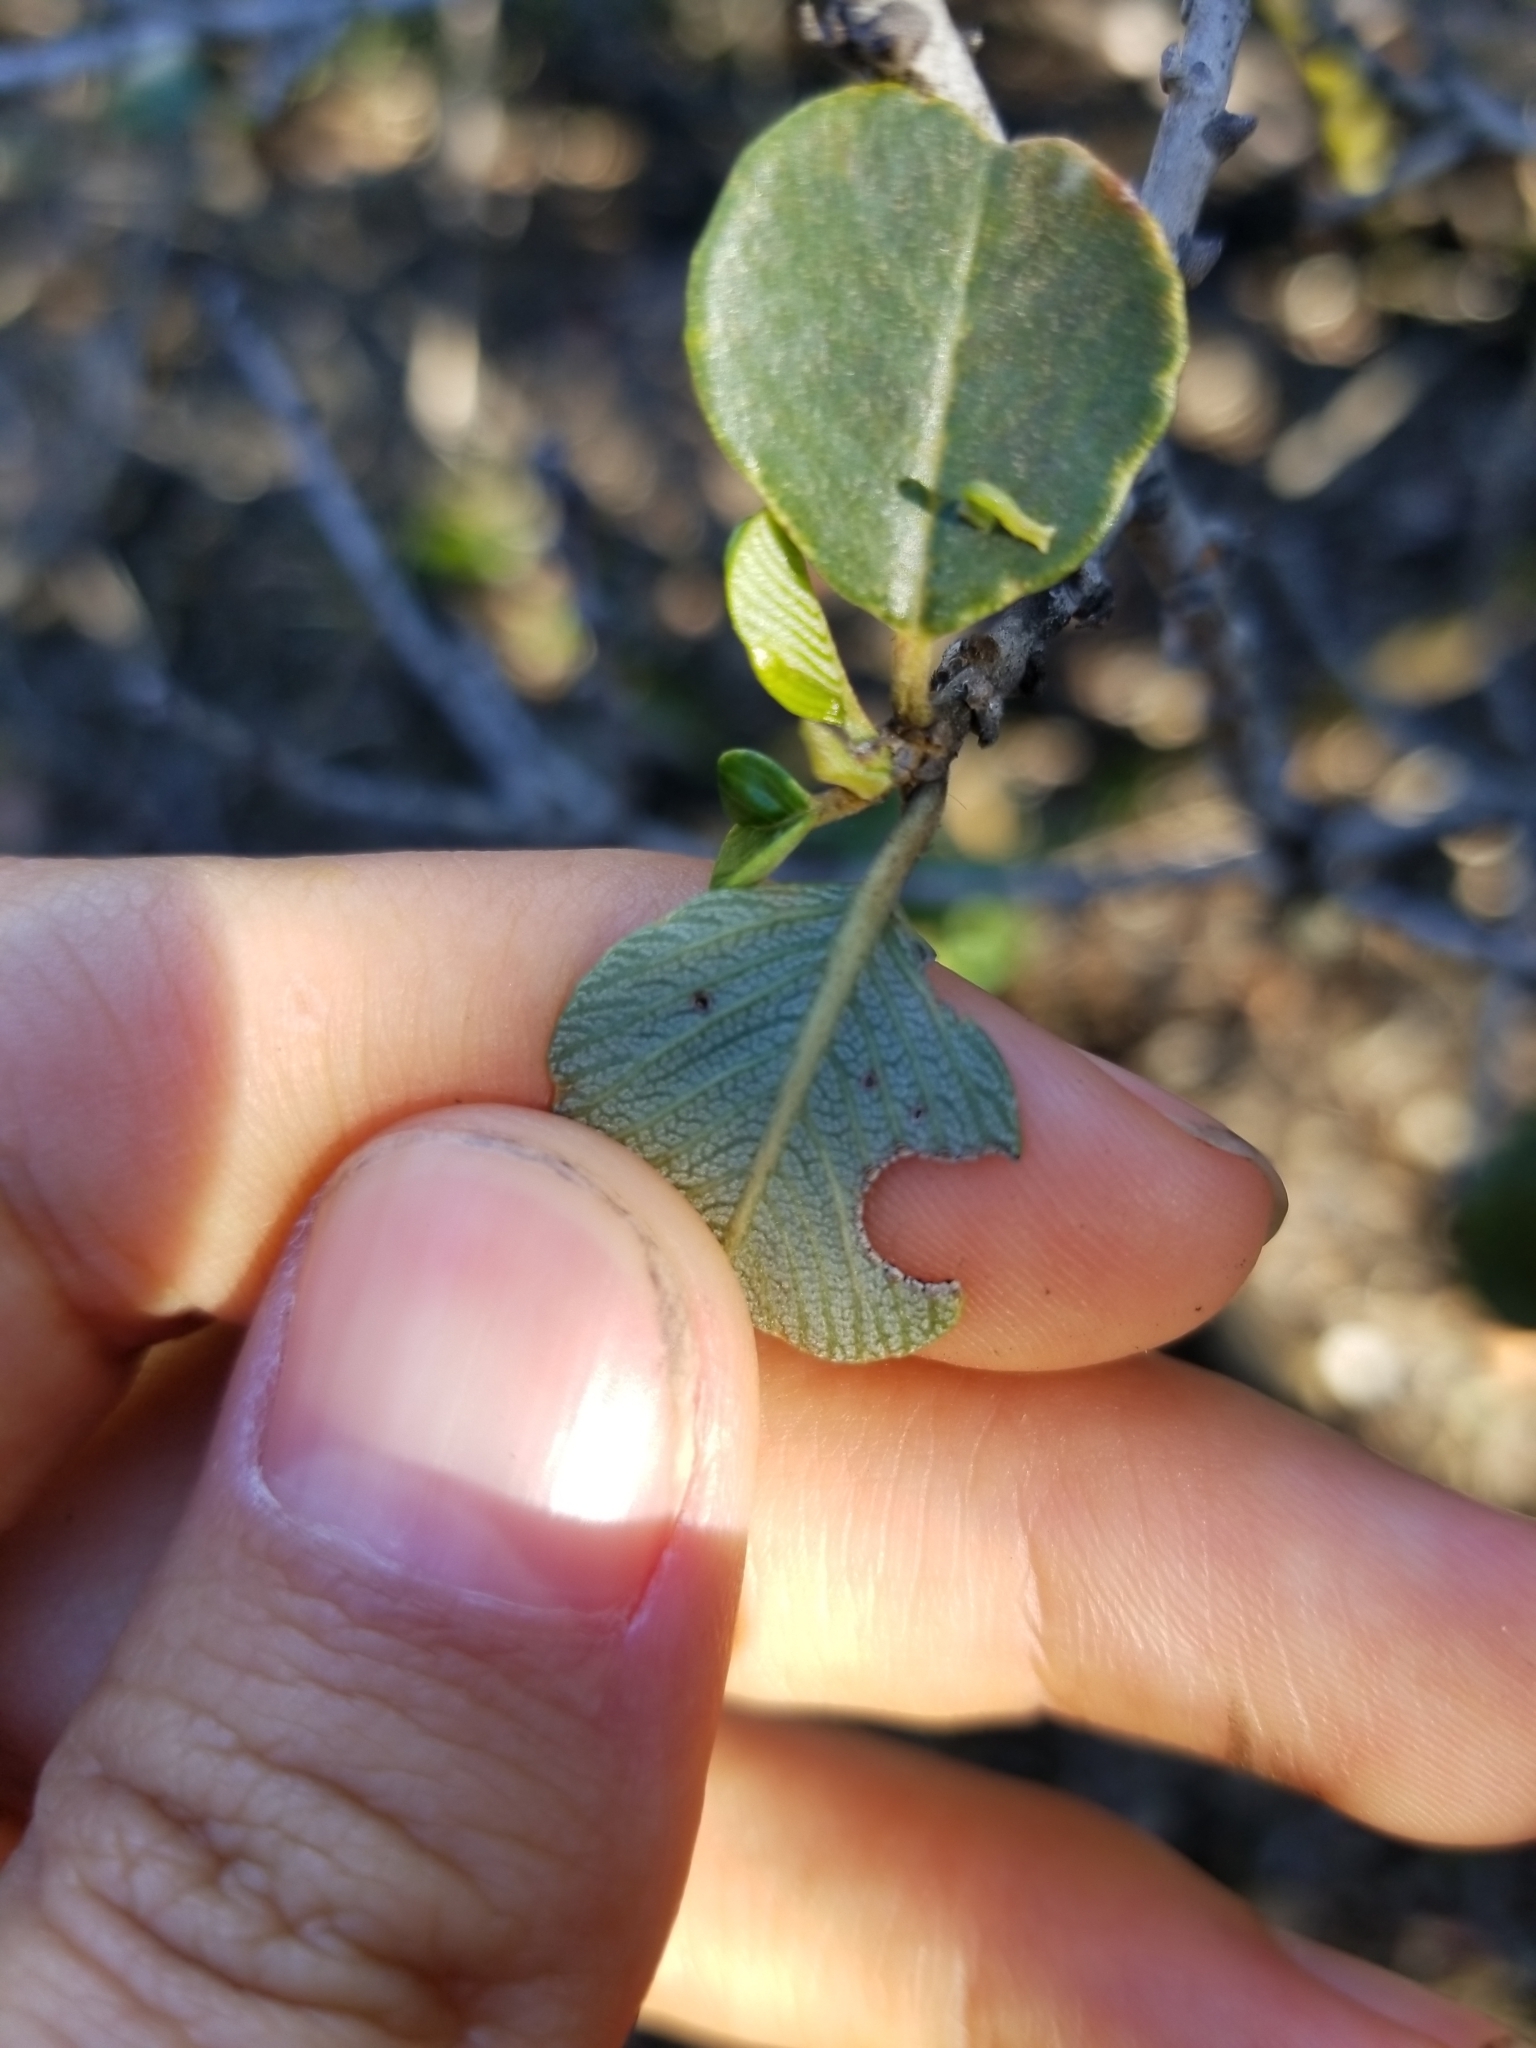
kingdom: Plantae
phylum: Tracheophyta
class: Magnoliopsida
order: Rosales
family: Rhamnaceae
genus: Ceanothus
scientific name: Ceanothus verrucosus
